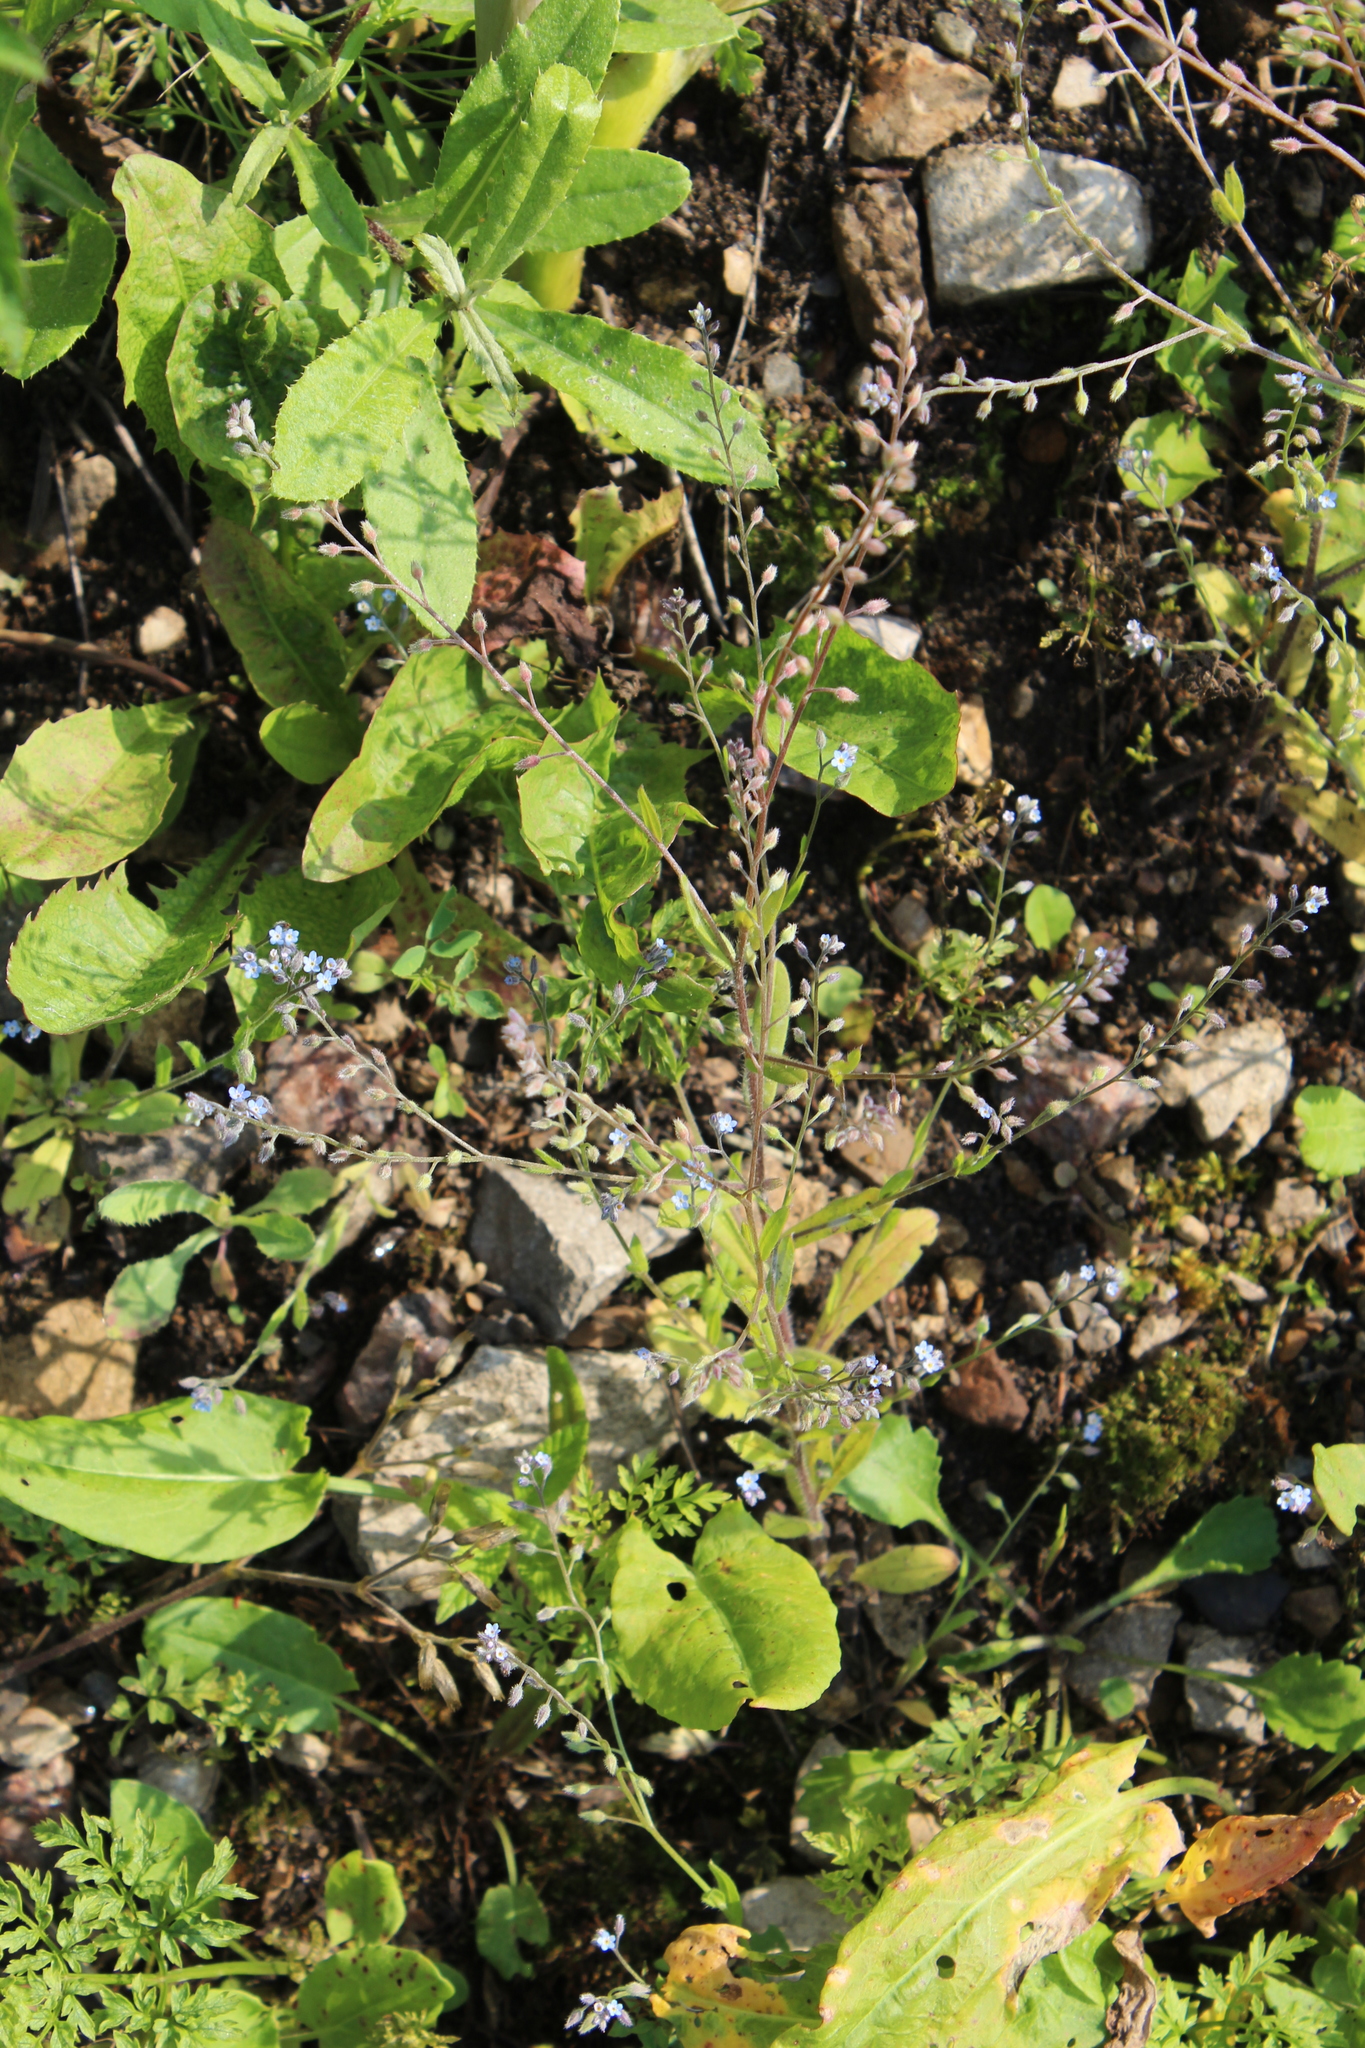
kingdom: Plantae
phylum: Tracheophyta
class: Magnoliopsida
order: Boraginales
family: Boraginaceae
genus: Myosotis
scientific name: Myosotis arvensis
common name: Field forget-me-not
